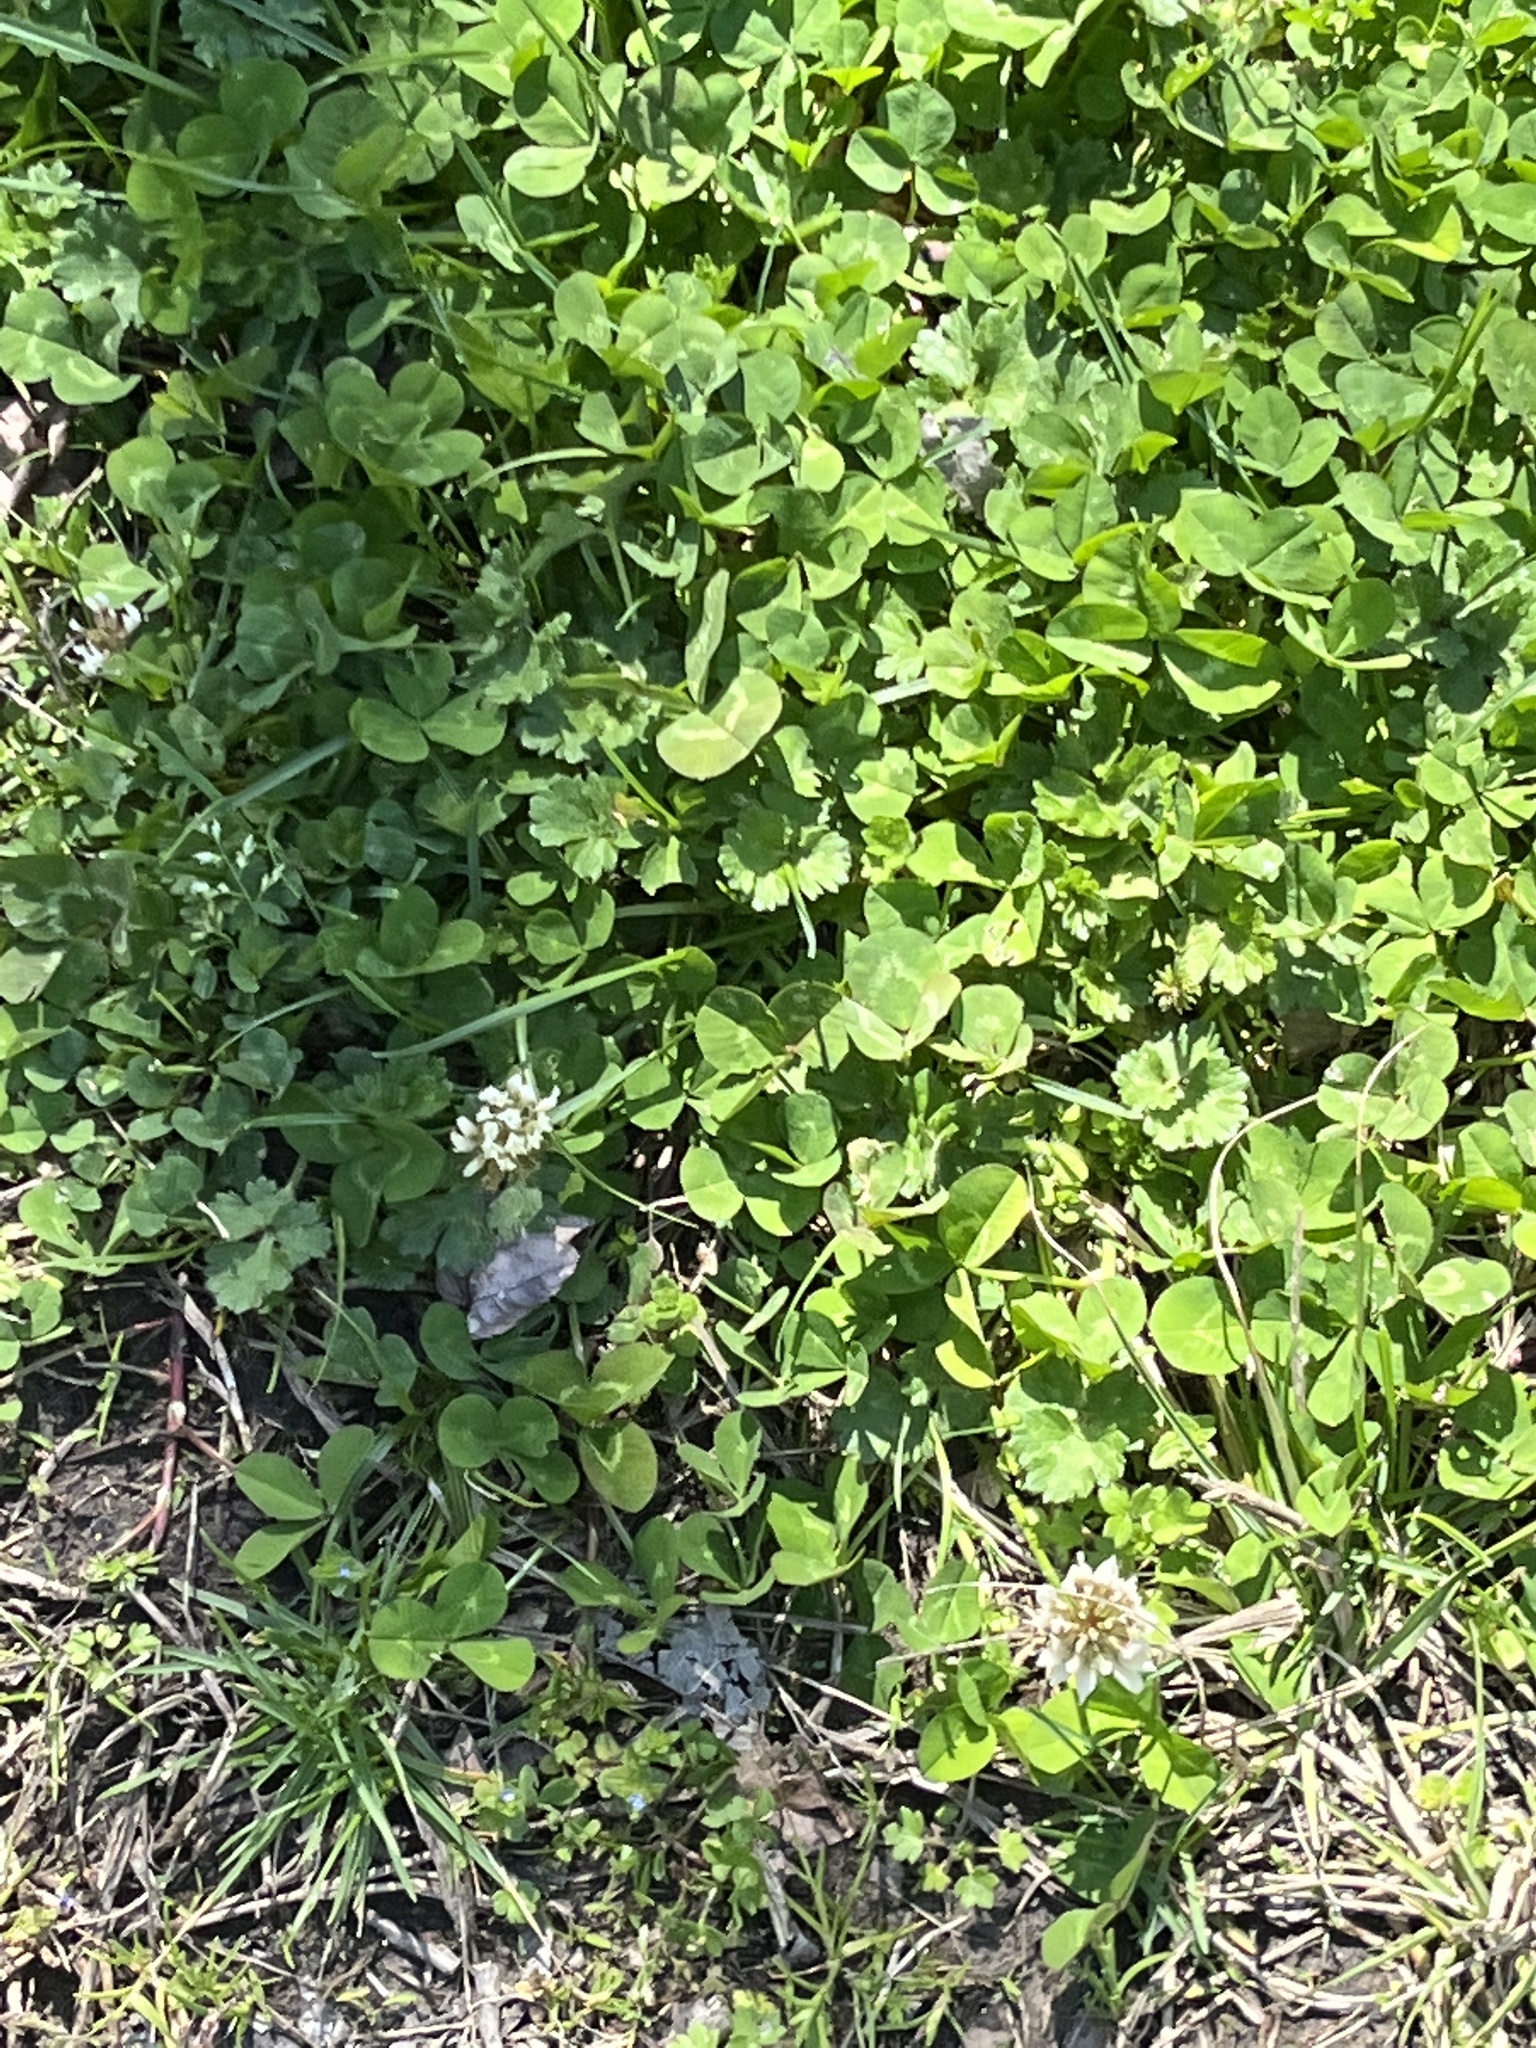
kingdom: Plantae
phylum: Tracheophyta
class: Magnoliopsida
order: Fabales
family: Fabaceae
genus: Trifolium
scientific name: Trifolium repens
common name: White clover
